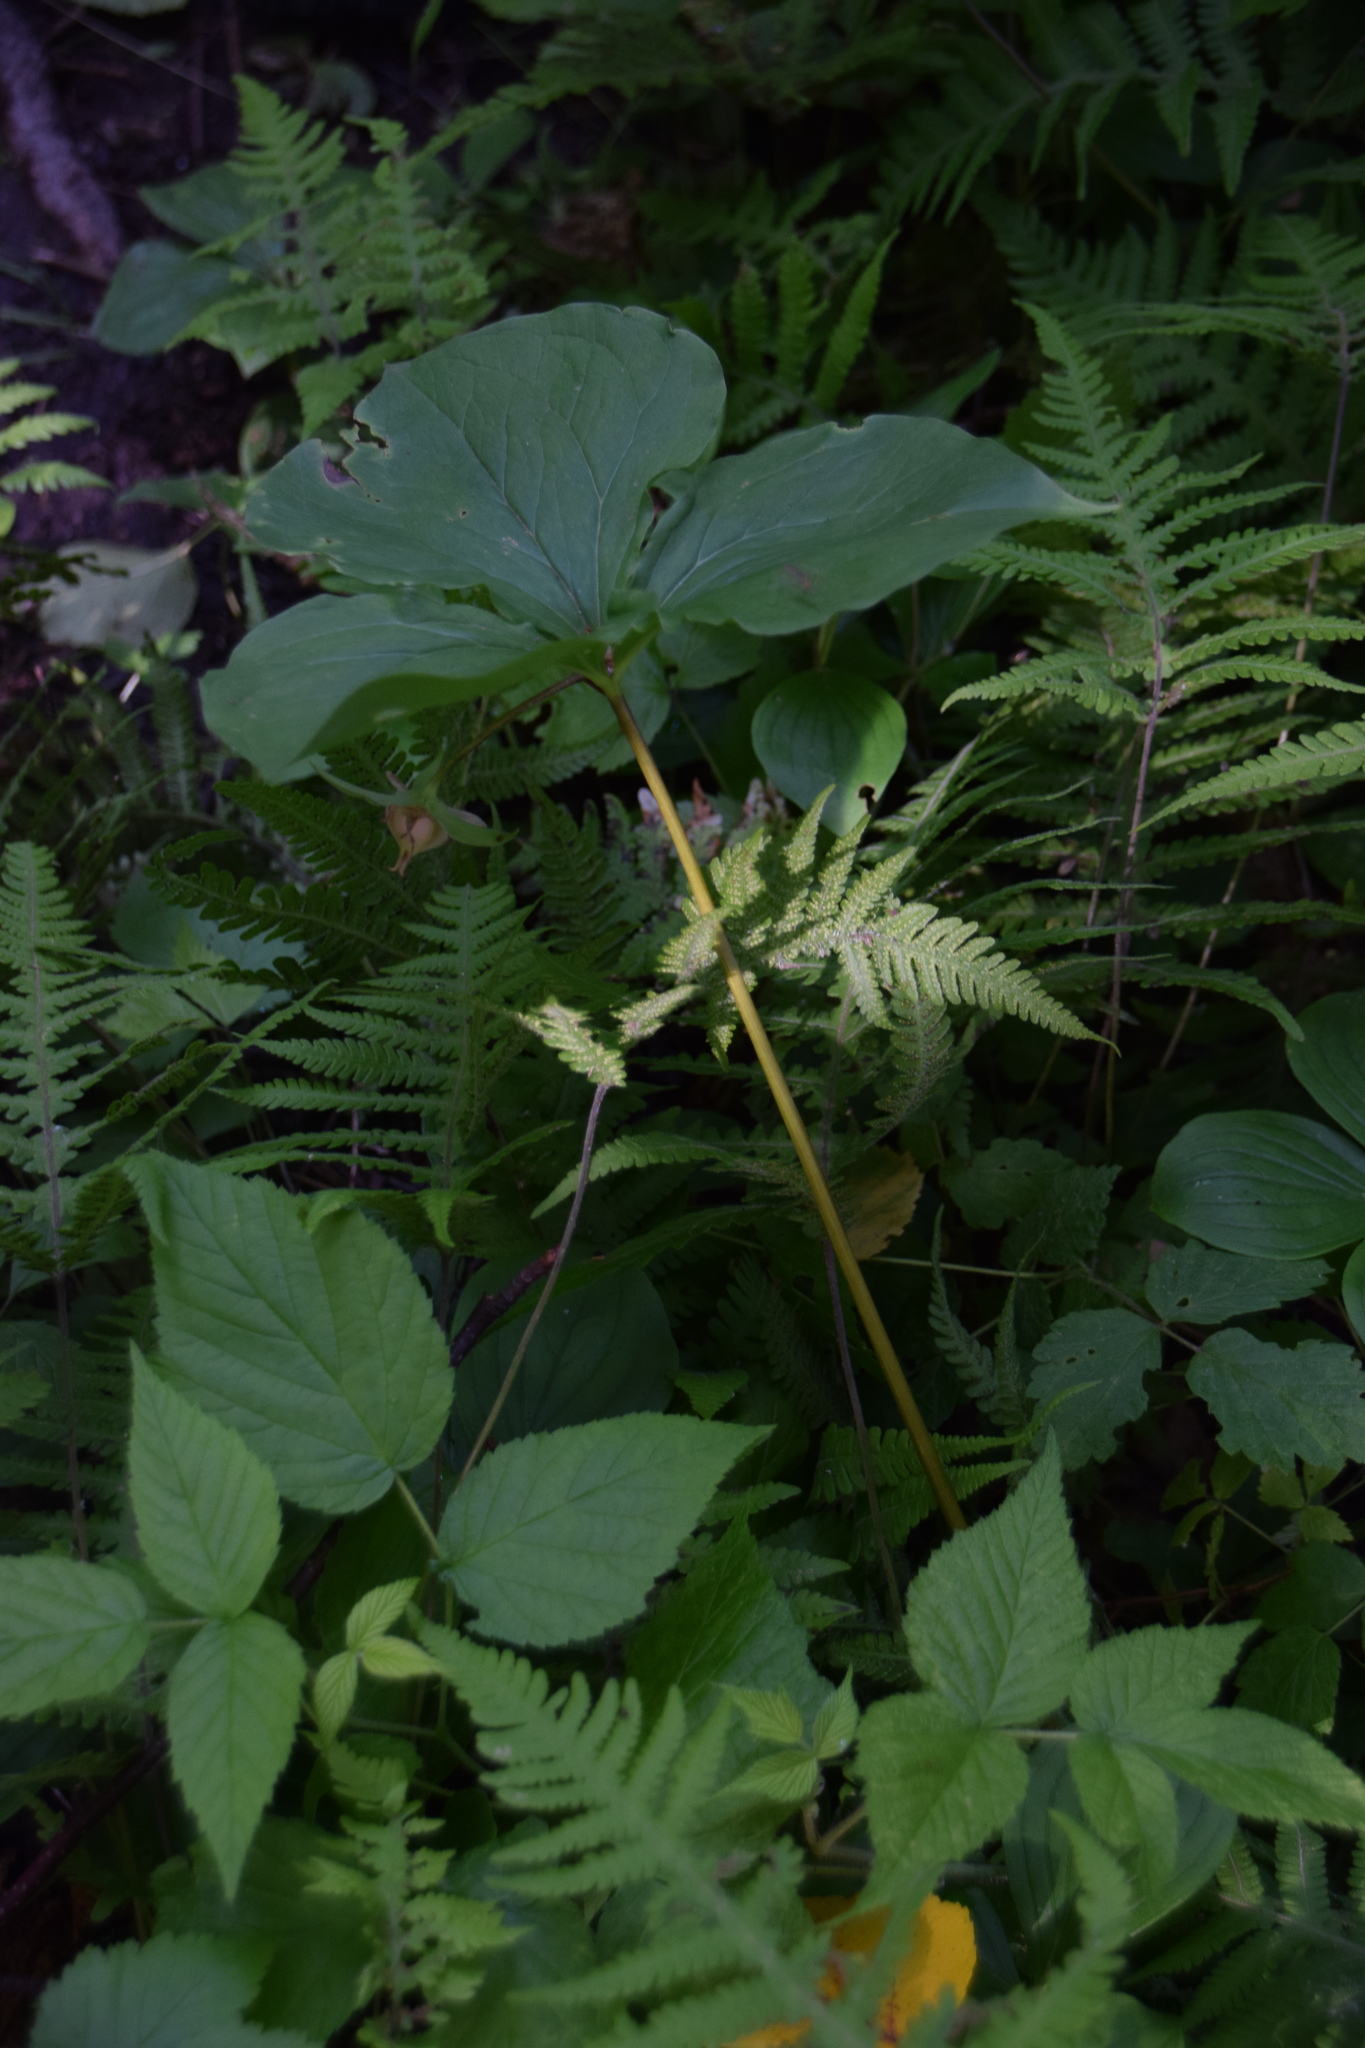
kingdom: Plantae
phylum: Tracheophyta
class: Liliopsida
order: Liliales
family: Melanthiaceae
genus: Trillium
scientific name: Trillium cernuum
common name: Nodding trillium
